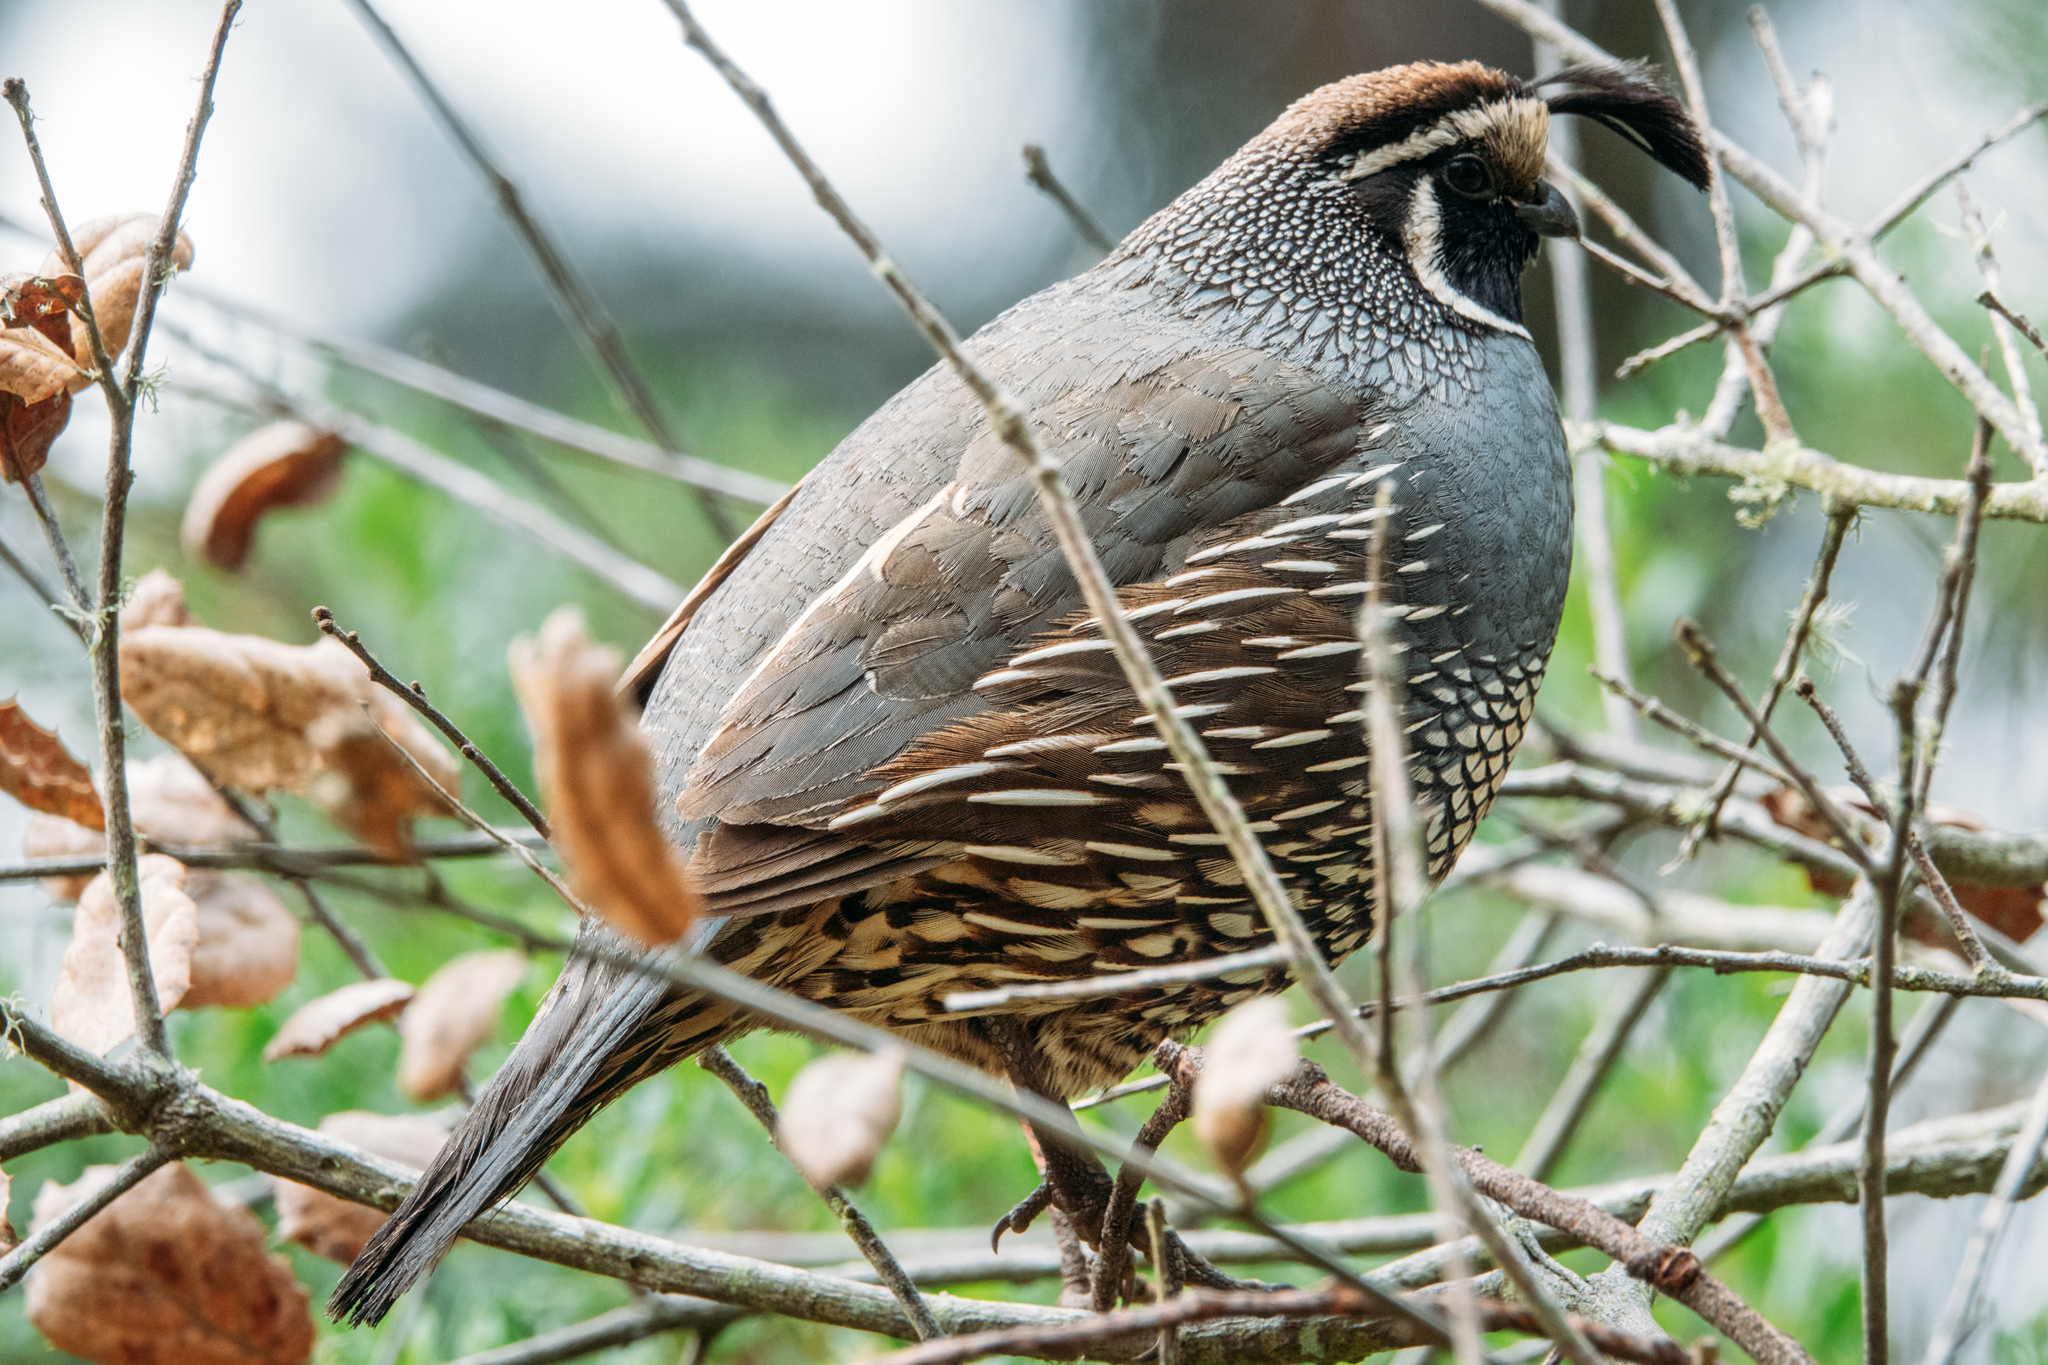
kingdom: Animalia
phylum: Chordata
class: Aves
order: Galliformes
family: Odontophoridae
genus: Callipepla
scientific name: Callipepla californica
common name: California quail
